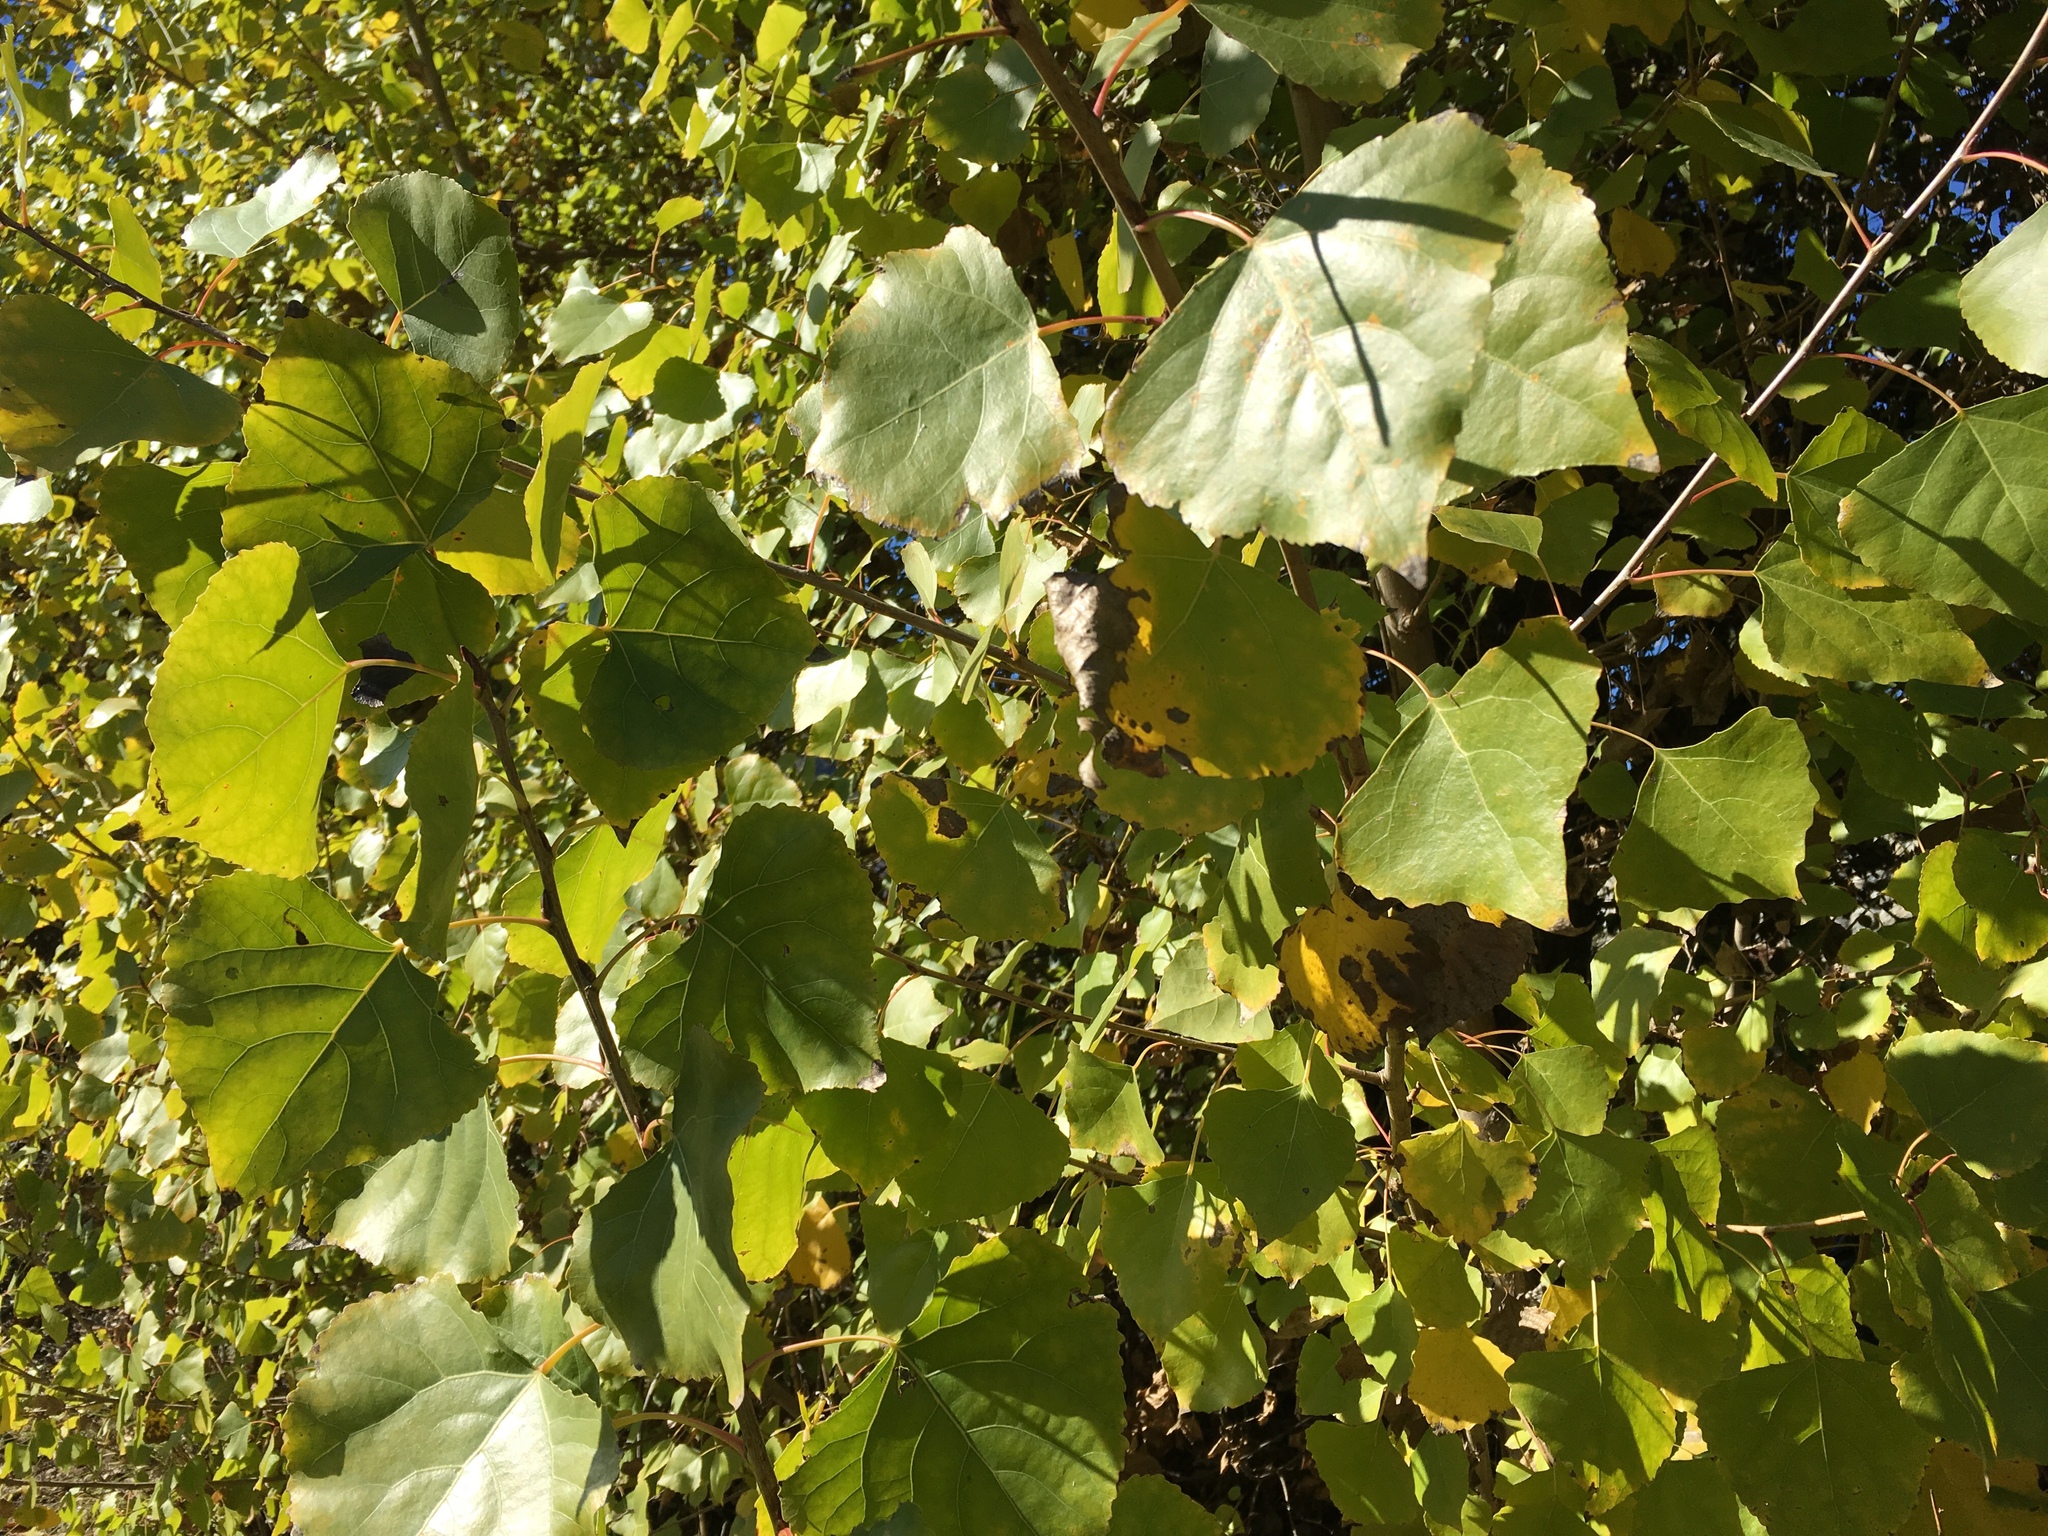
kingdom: Plantae
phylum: Tracheophyta
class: Magnoliopsida
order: Malpighiales
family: Salicaceae
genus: Populus
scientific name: Populus fremontii
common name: Fremont's cottonwood
